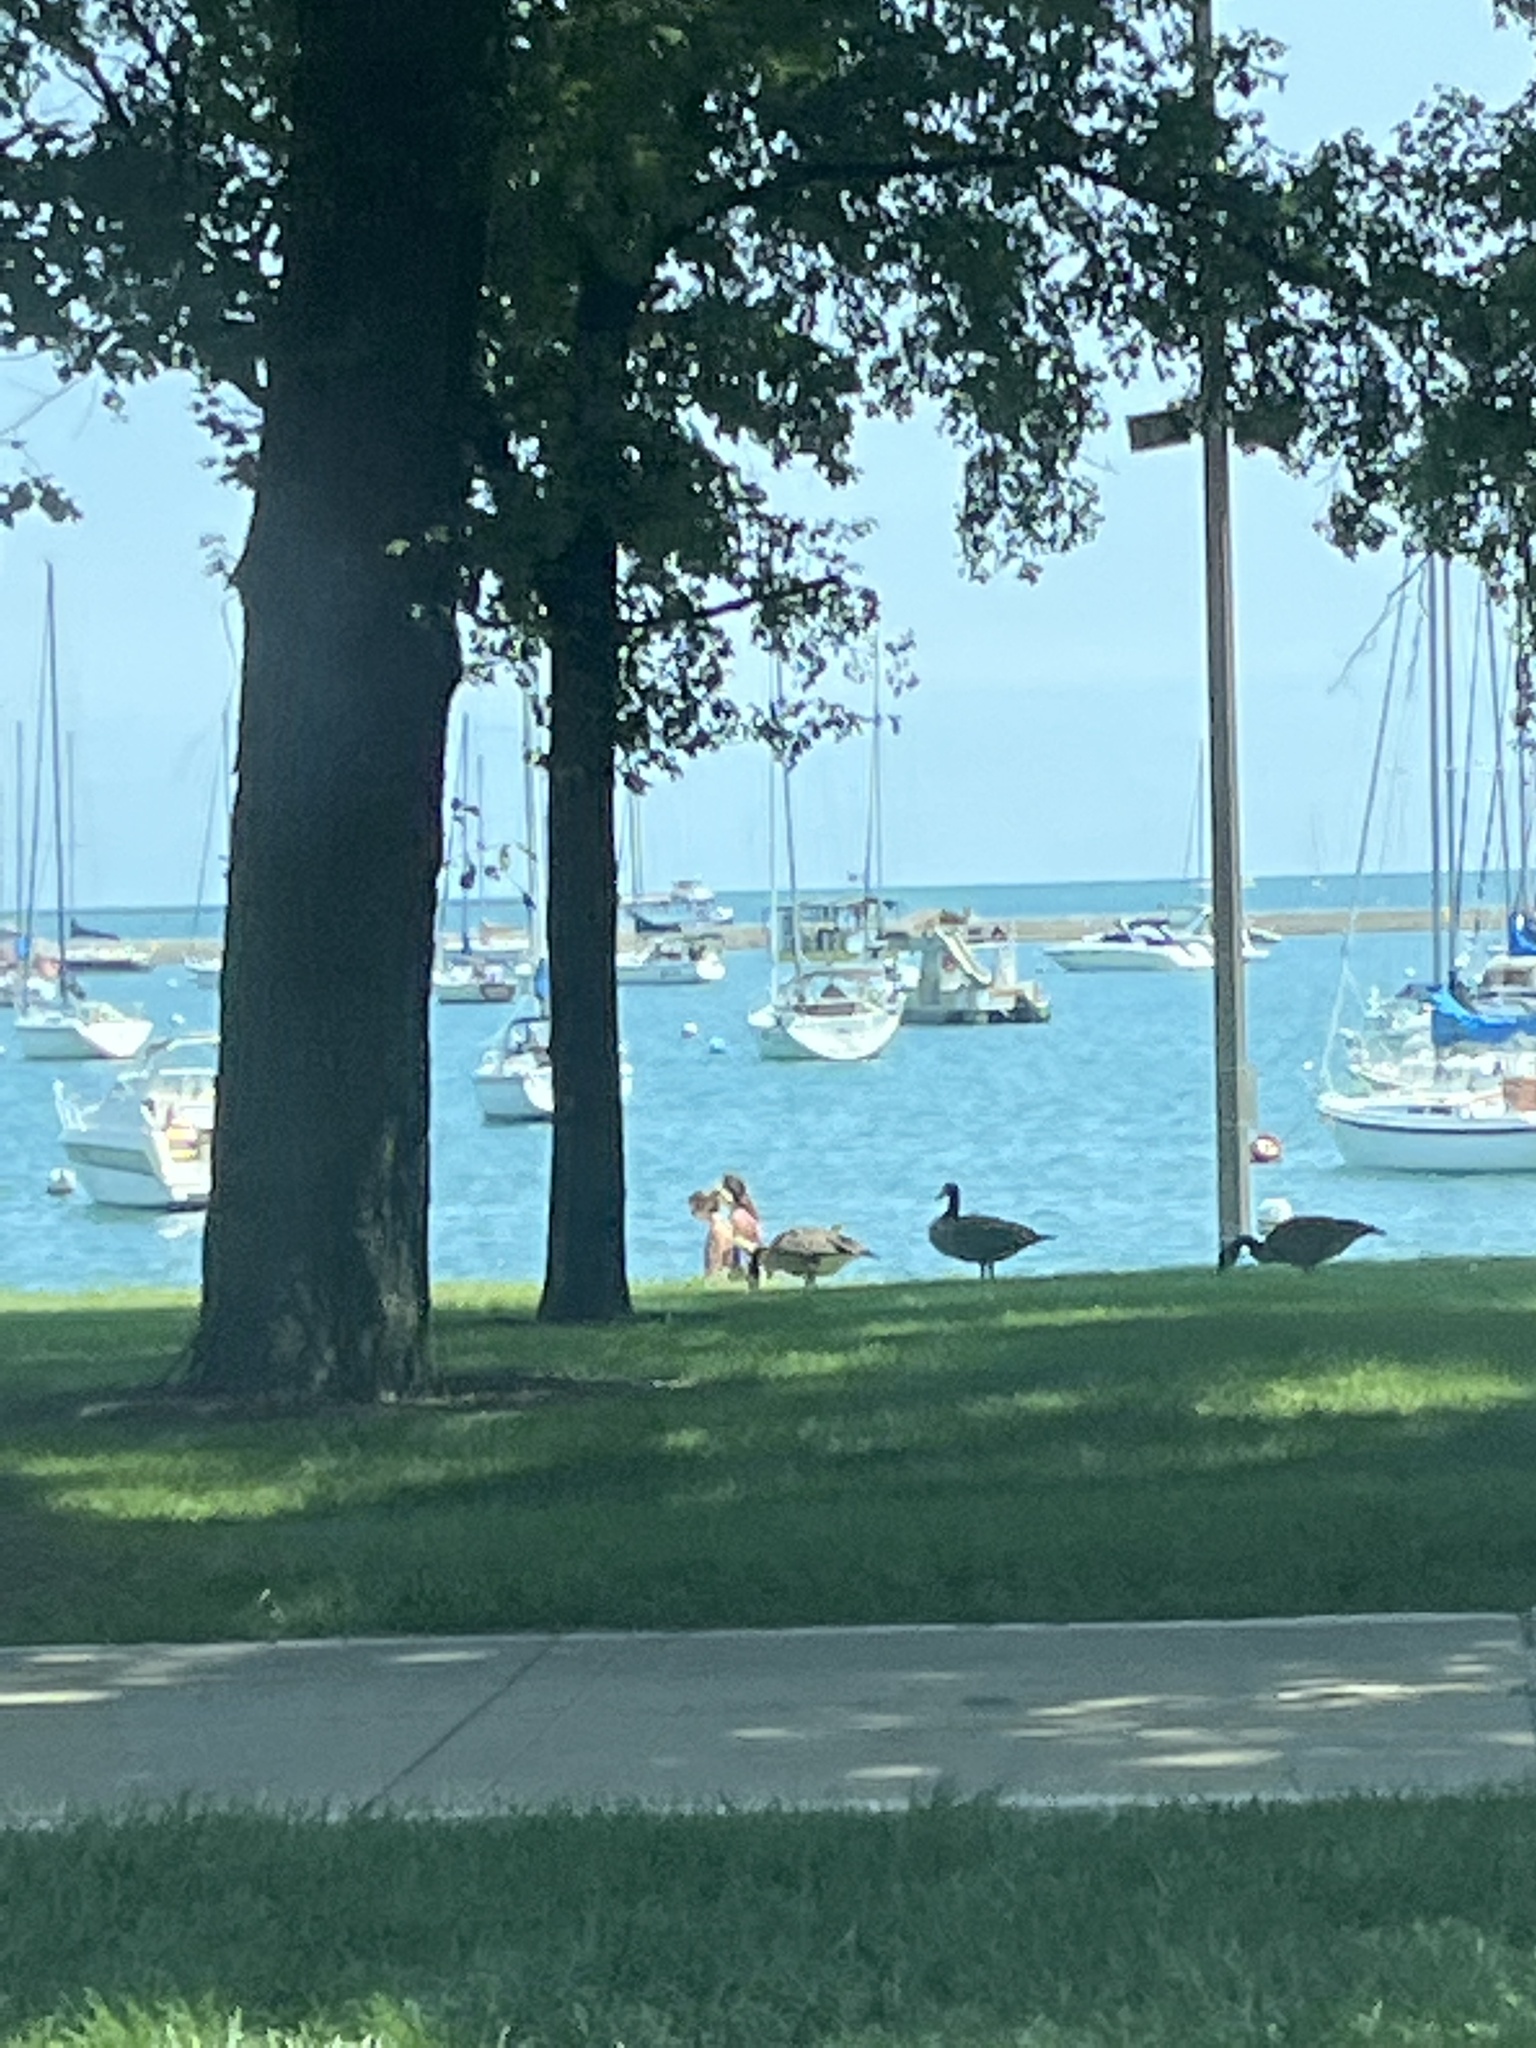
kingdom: Animalia
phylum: Chordata
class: Aves
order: Anseriformes
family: Anatidae
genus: Branta
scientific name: Branta canadensis
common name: Canada goose
